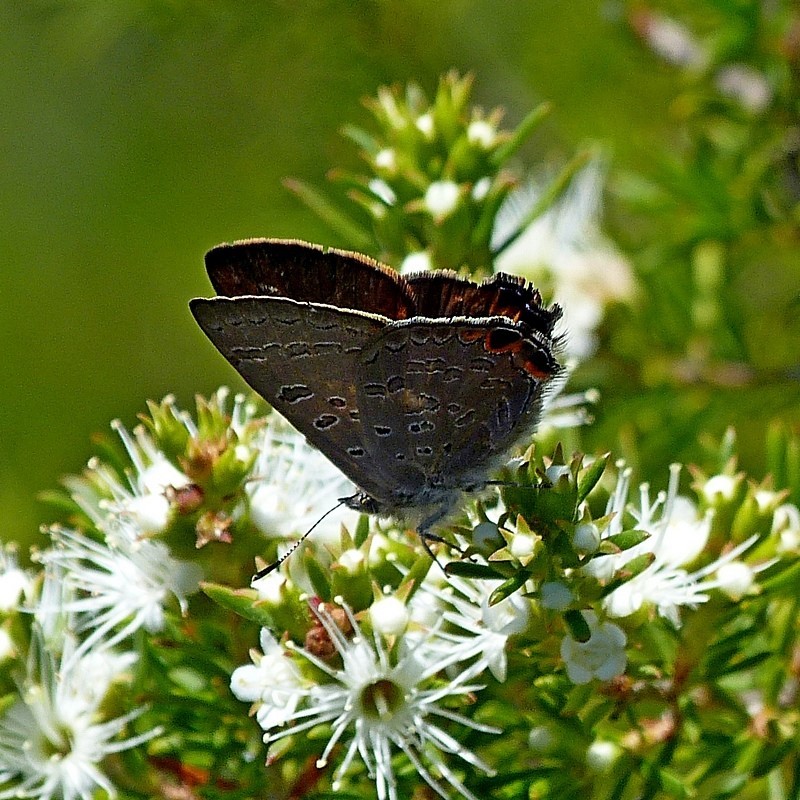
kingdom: Animalia
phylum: Arthropoda
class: Insecta
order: Lepidoptera
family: Lycaenidae
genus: Acrodipsas
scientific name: Acrodipsas cuprea
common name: Copper ant-blue
